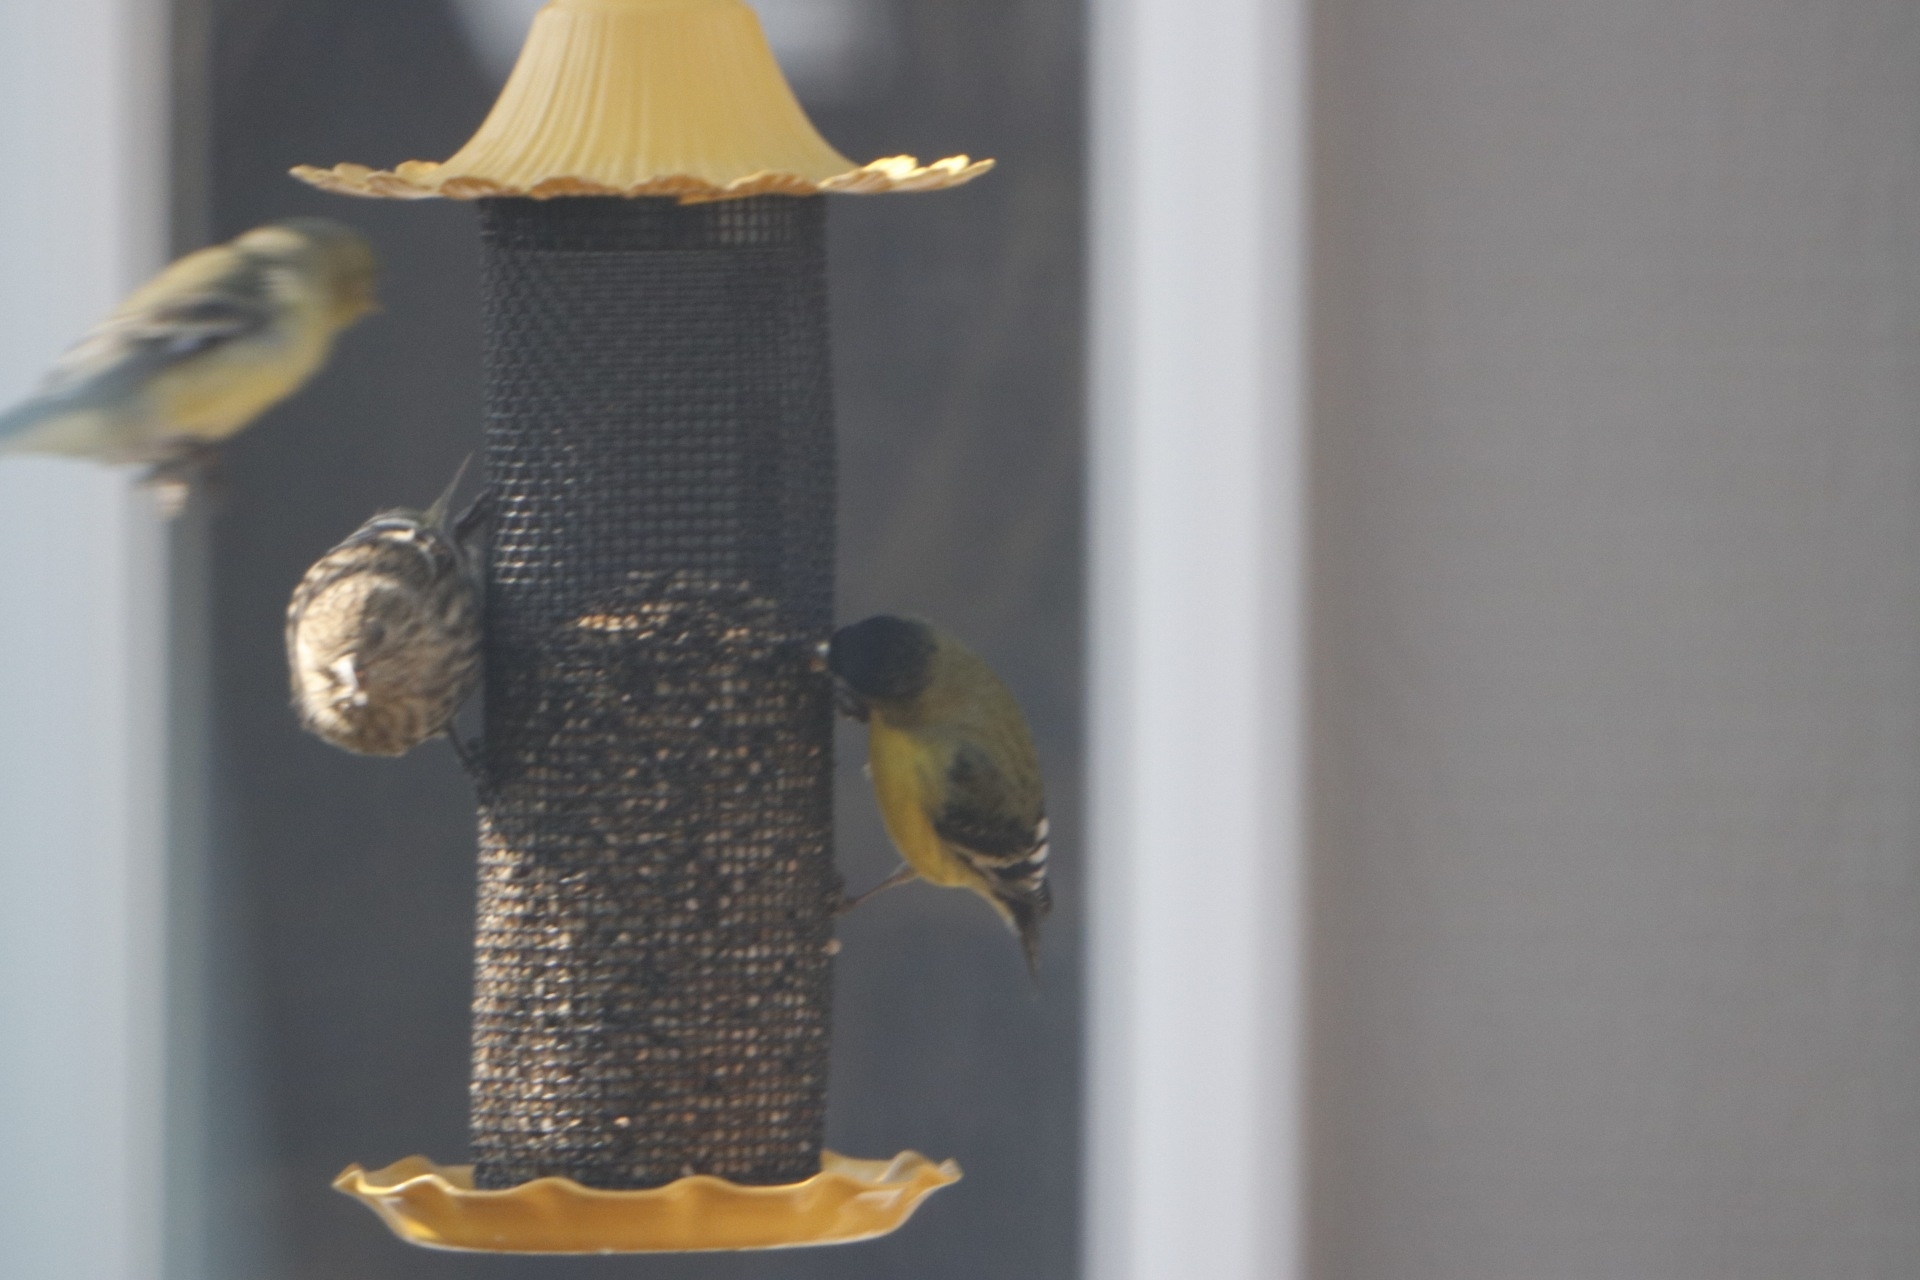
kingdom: Animalia
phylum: Chordata
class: Aves
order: Passeriformes
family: Fringillidae
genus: Spinus
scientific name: Spinus psaltria
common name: Lesser goldfinch
